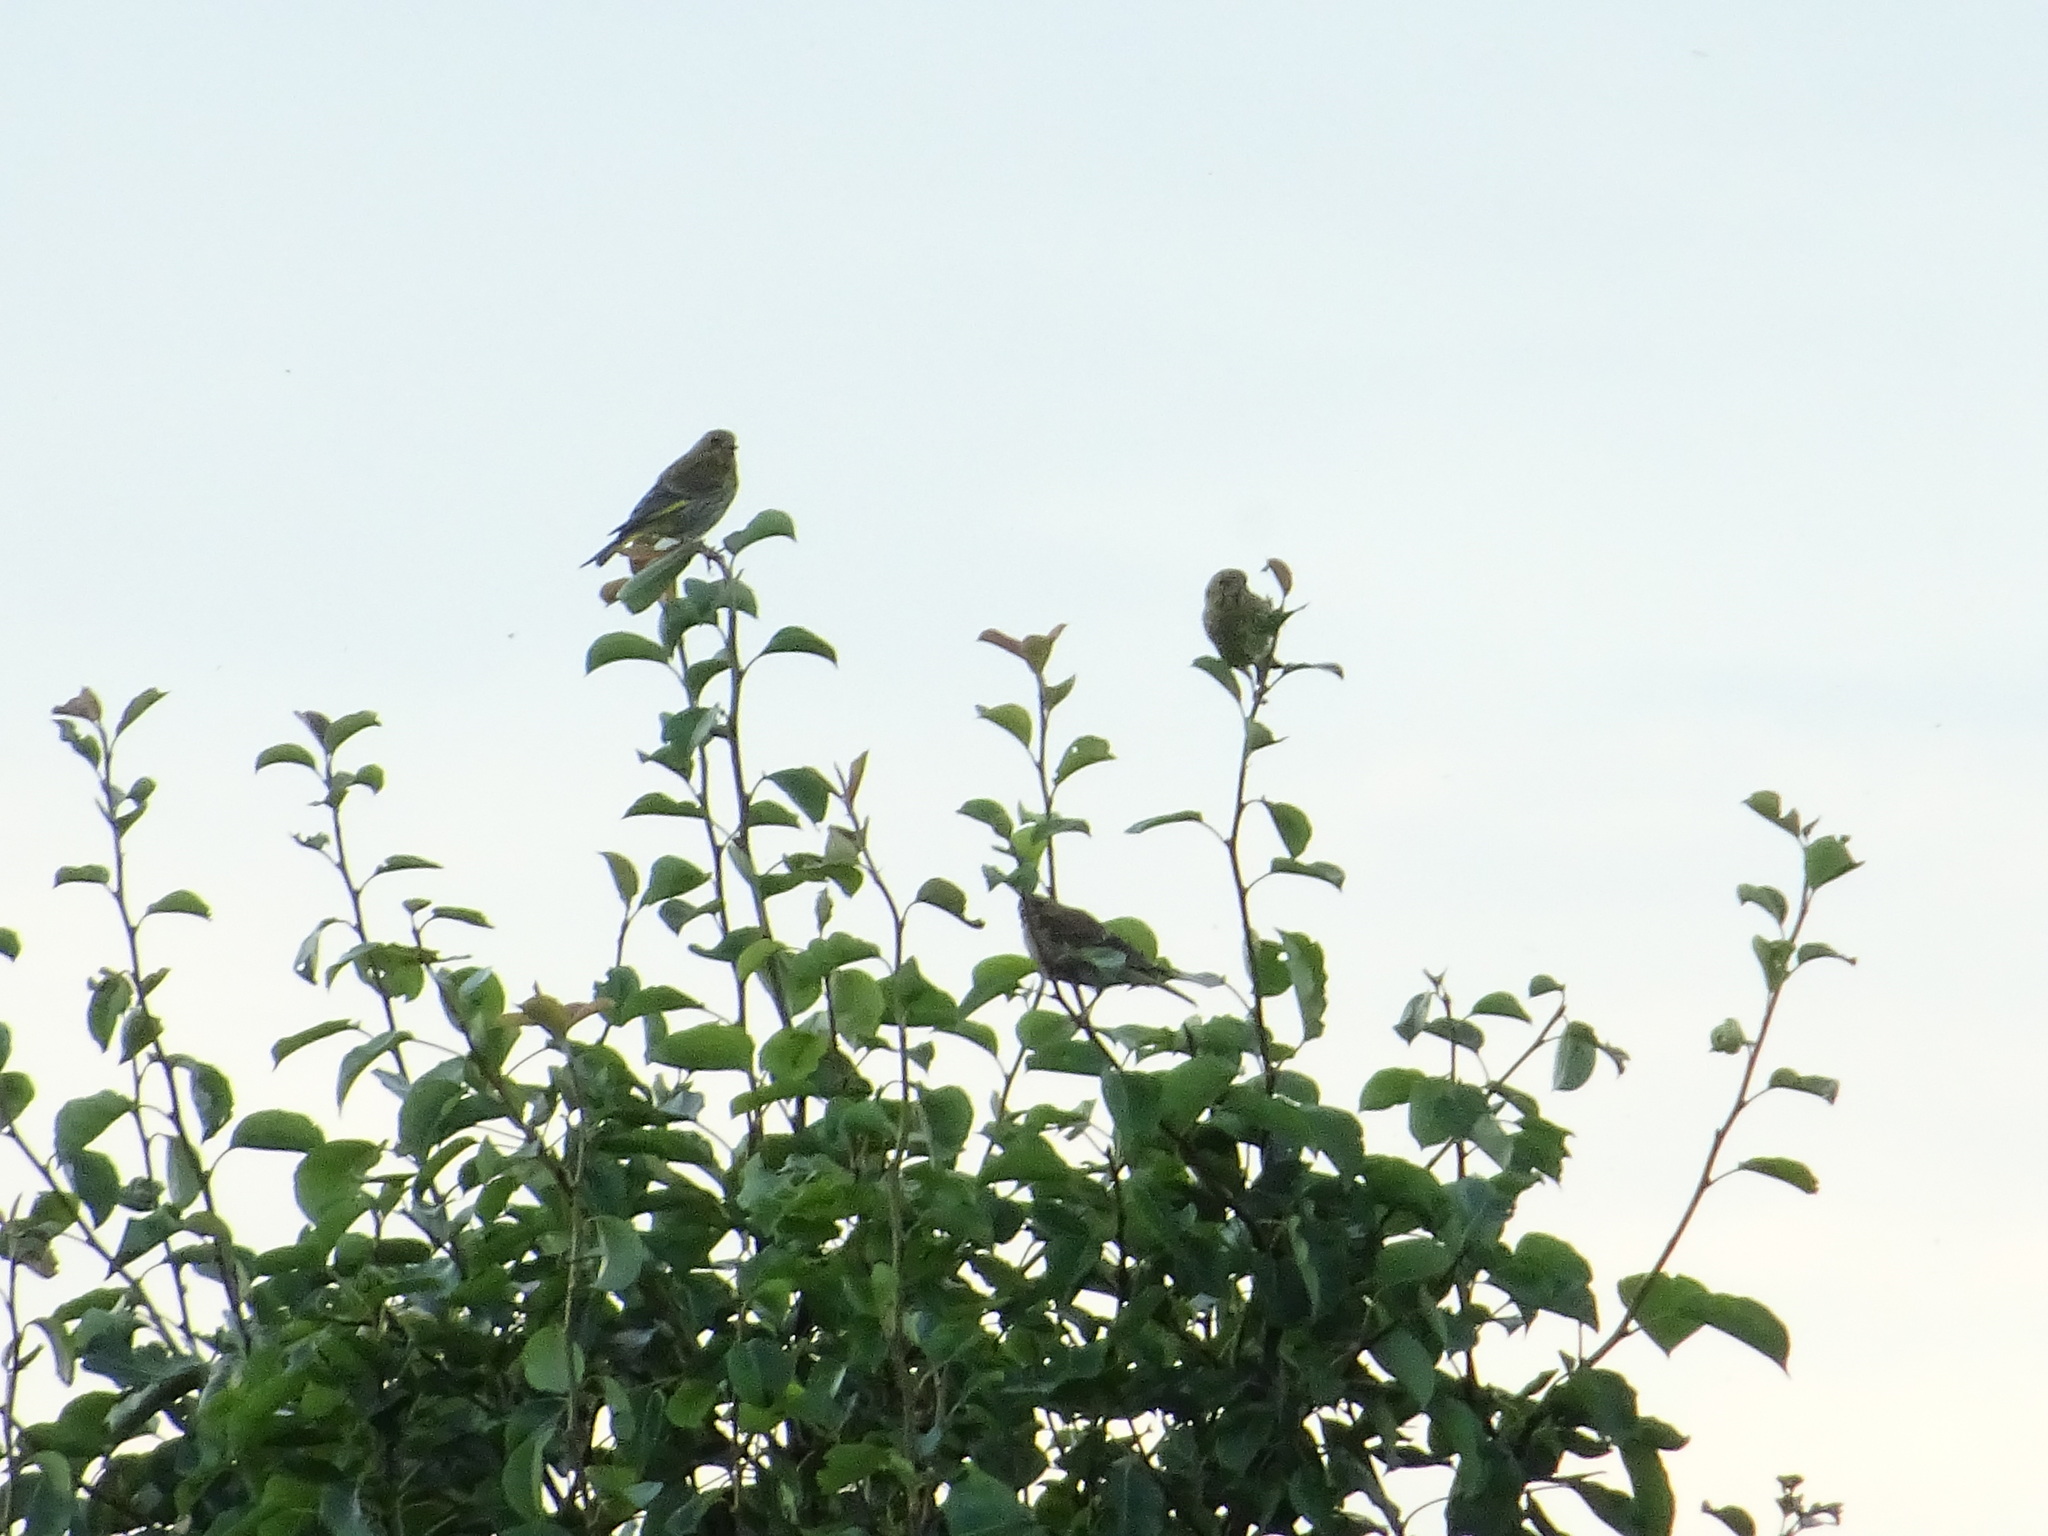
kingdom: Plantae
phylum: Tracheophyta
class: Liliopsida
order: Poales
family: Poaceae
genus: Chloris
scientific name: Chloris chloris
